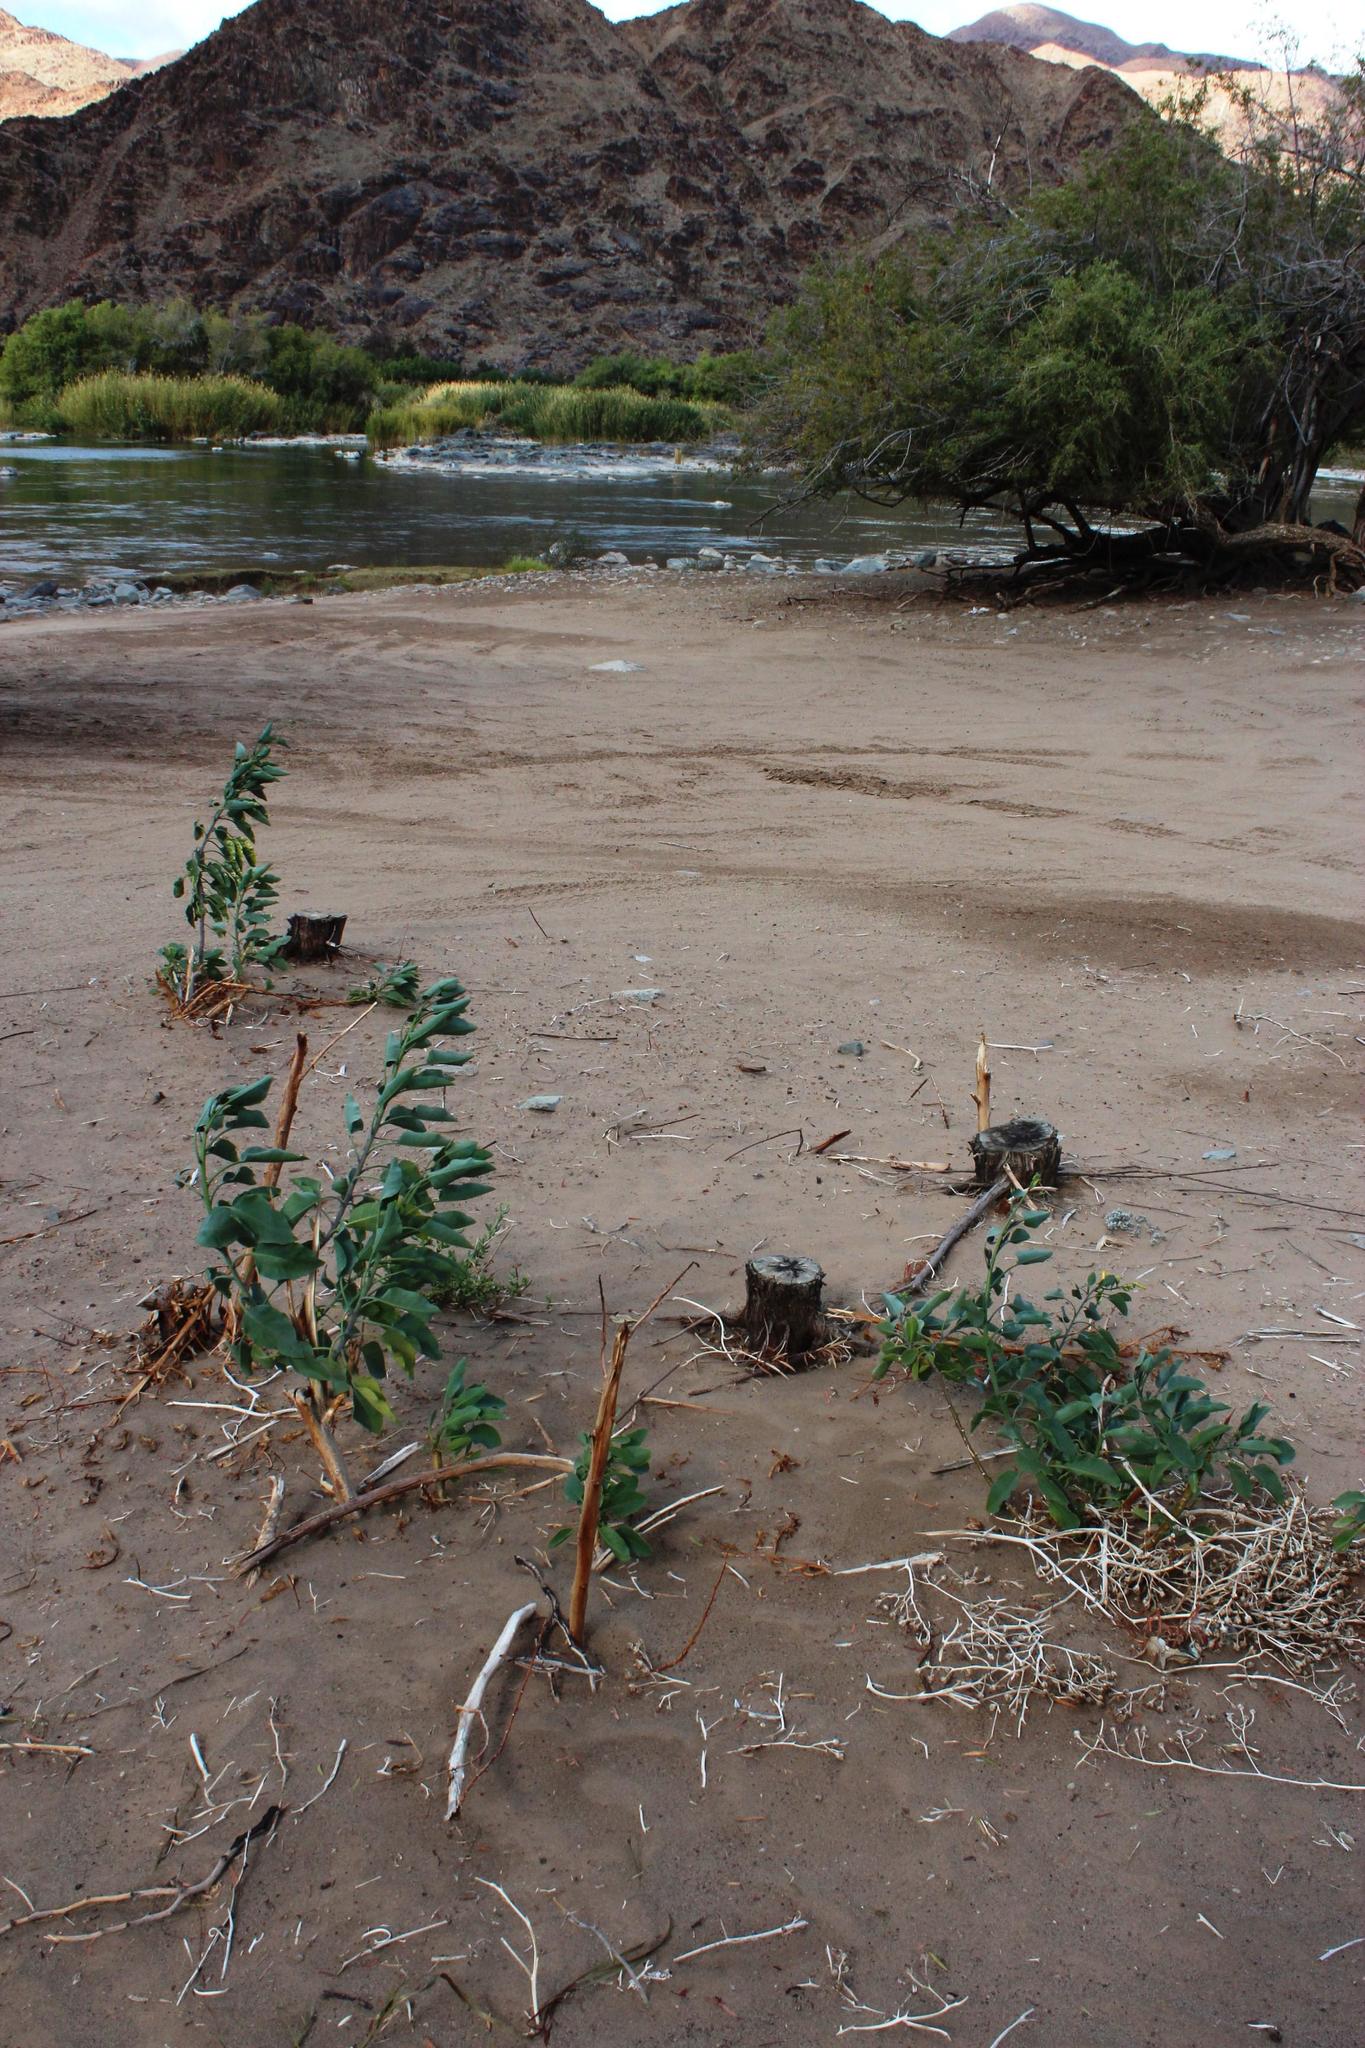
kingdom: Plantae
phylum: Tracheophyta
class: Magnoliopsida
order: Solanales
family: Solanaceae
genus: Nicotiana
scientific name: Nicotiana glauca
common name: Tree tobacco
